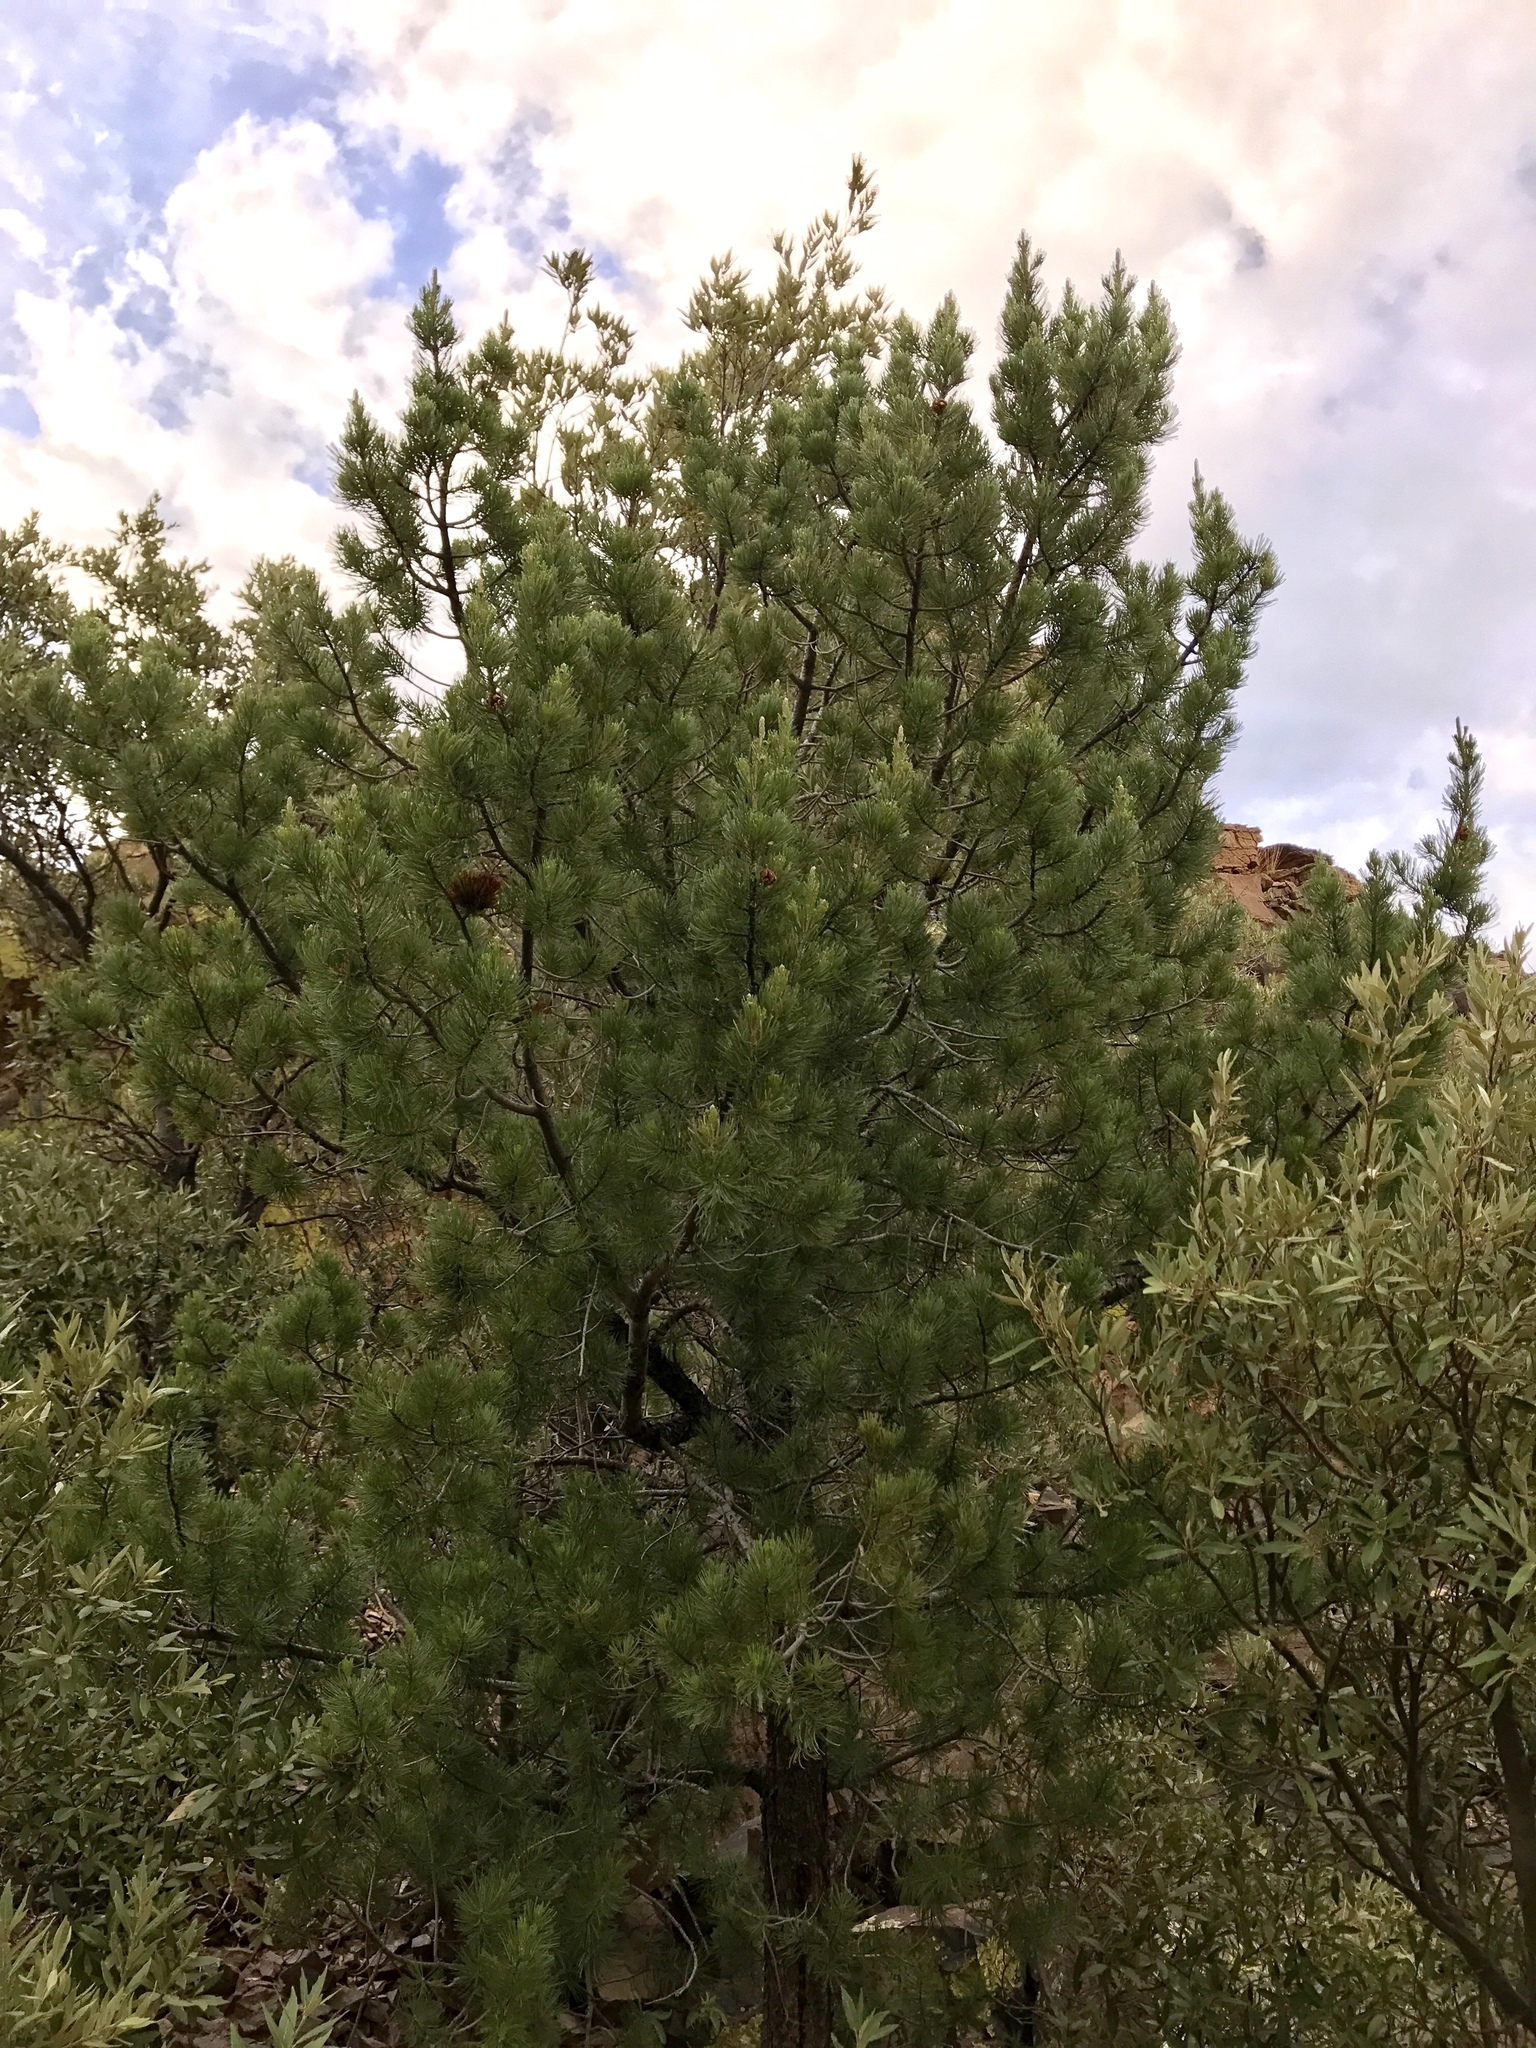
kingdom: Plantae
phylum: Tracheophyta
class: Pinopsida
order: Pinales
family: Pinaceae
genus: Pinus
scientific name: Pinus discolor
